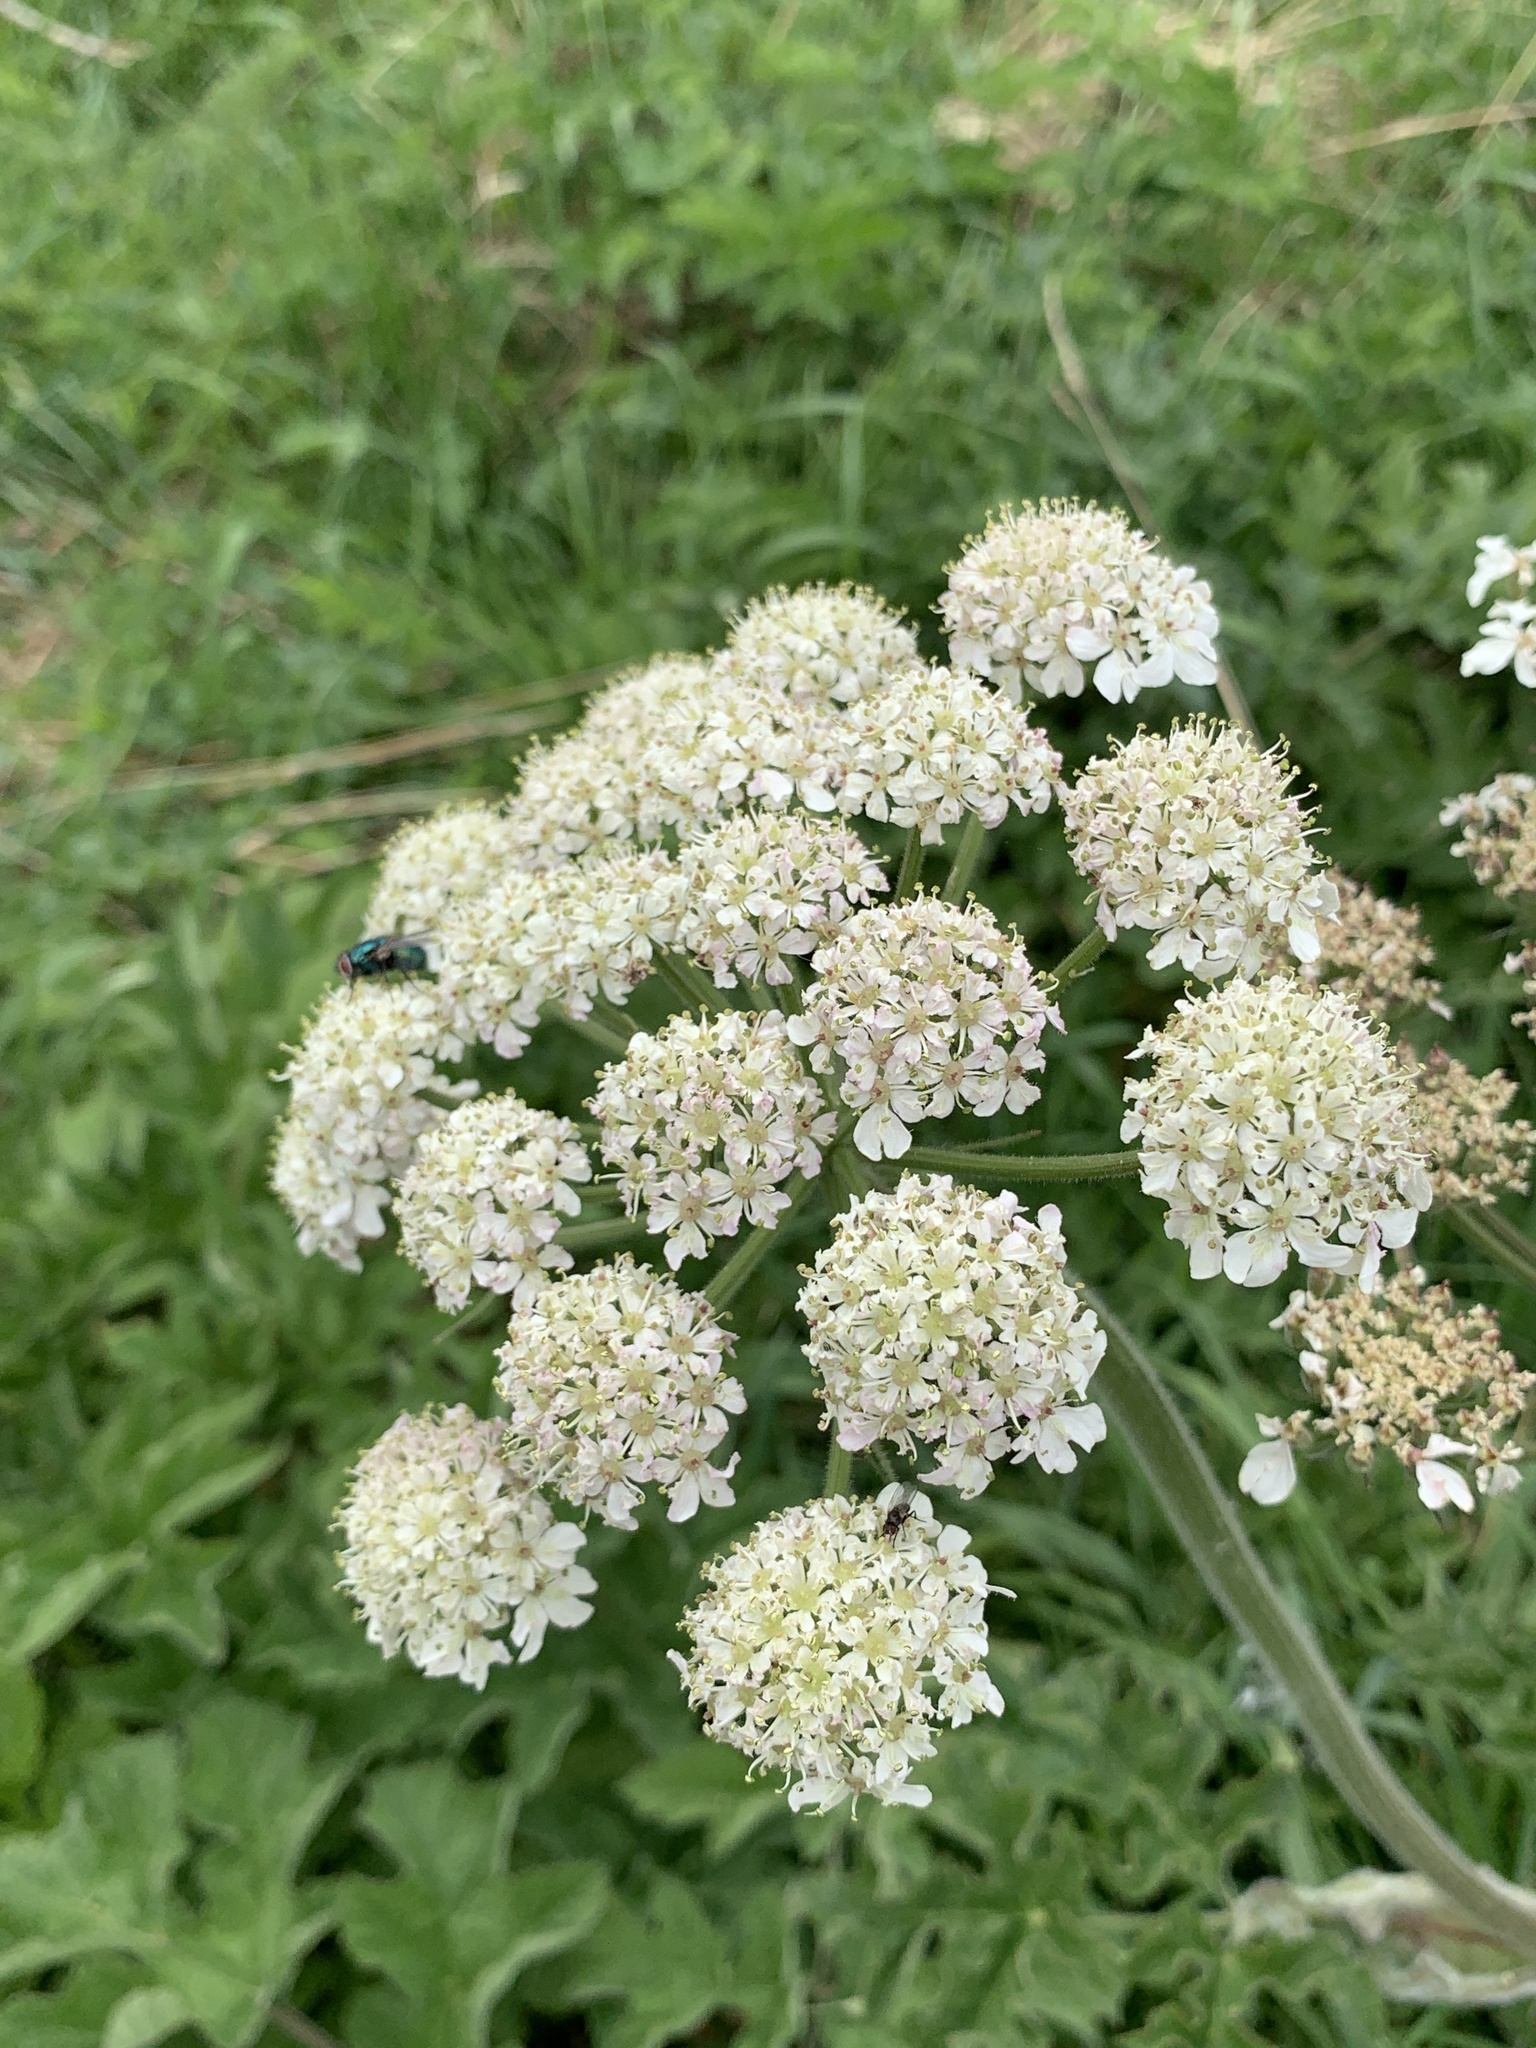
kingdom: Plantae
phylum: Tracheophyta
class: Magnoliopsida
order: Apiales
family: Apiaceae
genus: Heracleum
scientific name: Heracleum sphondylium
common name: Hogweed
